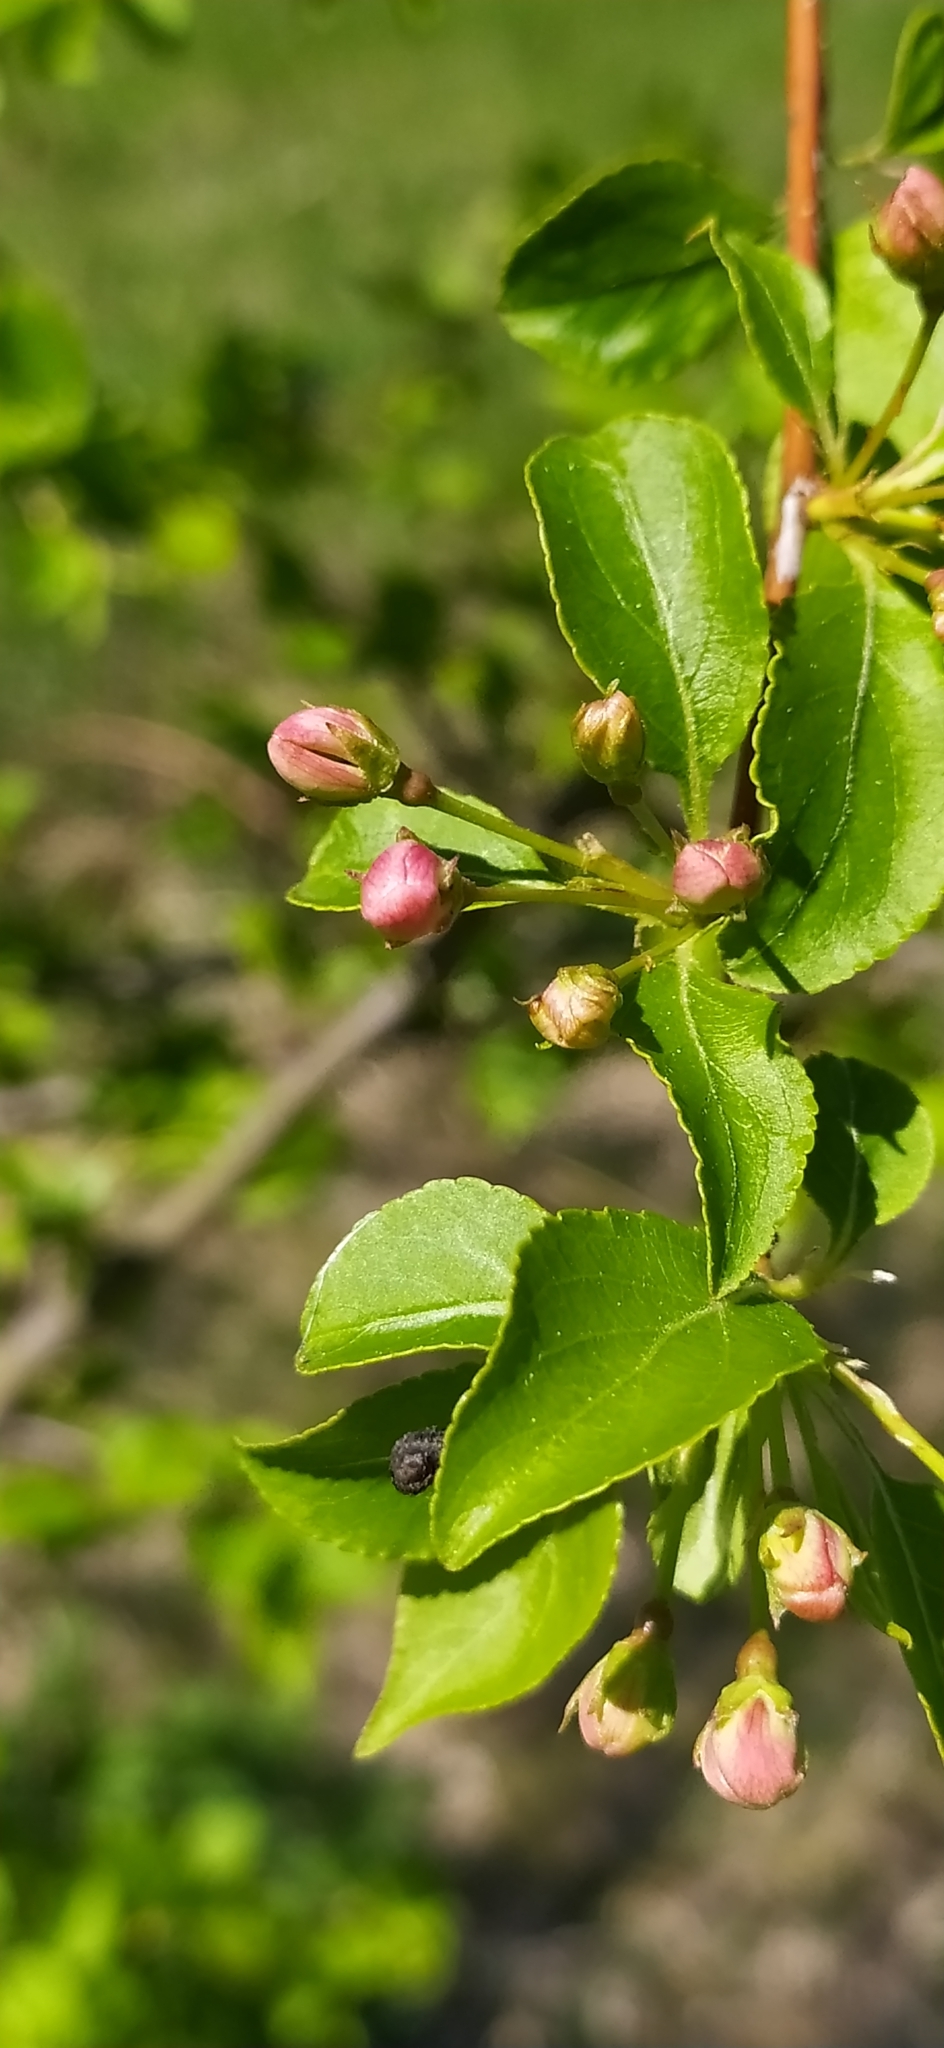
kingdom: Plantae
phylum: Tracheophyta
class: Magnoliopsida
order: Rosales
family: Rosaceae
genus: Malus
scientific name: Malus baccata
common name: Siberian crab
